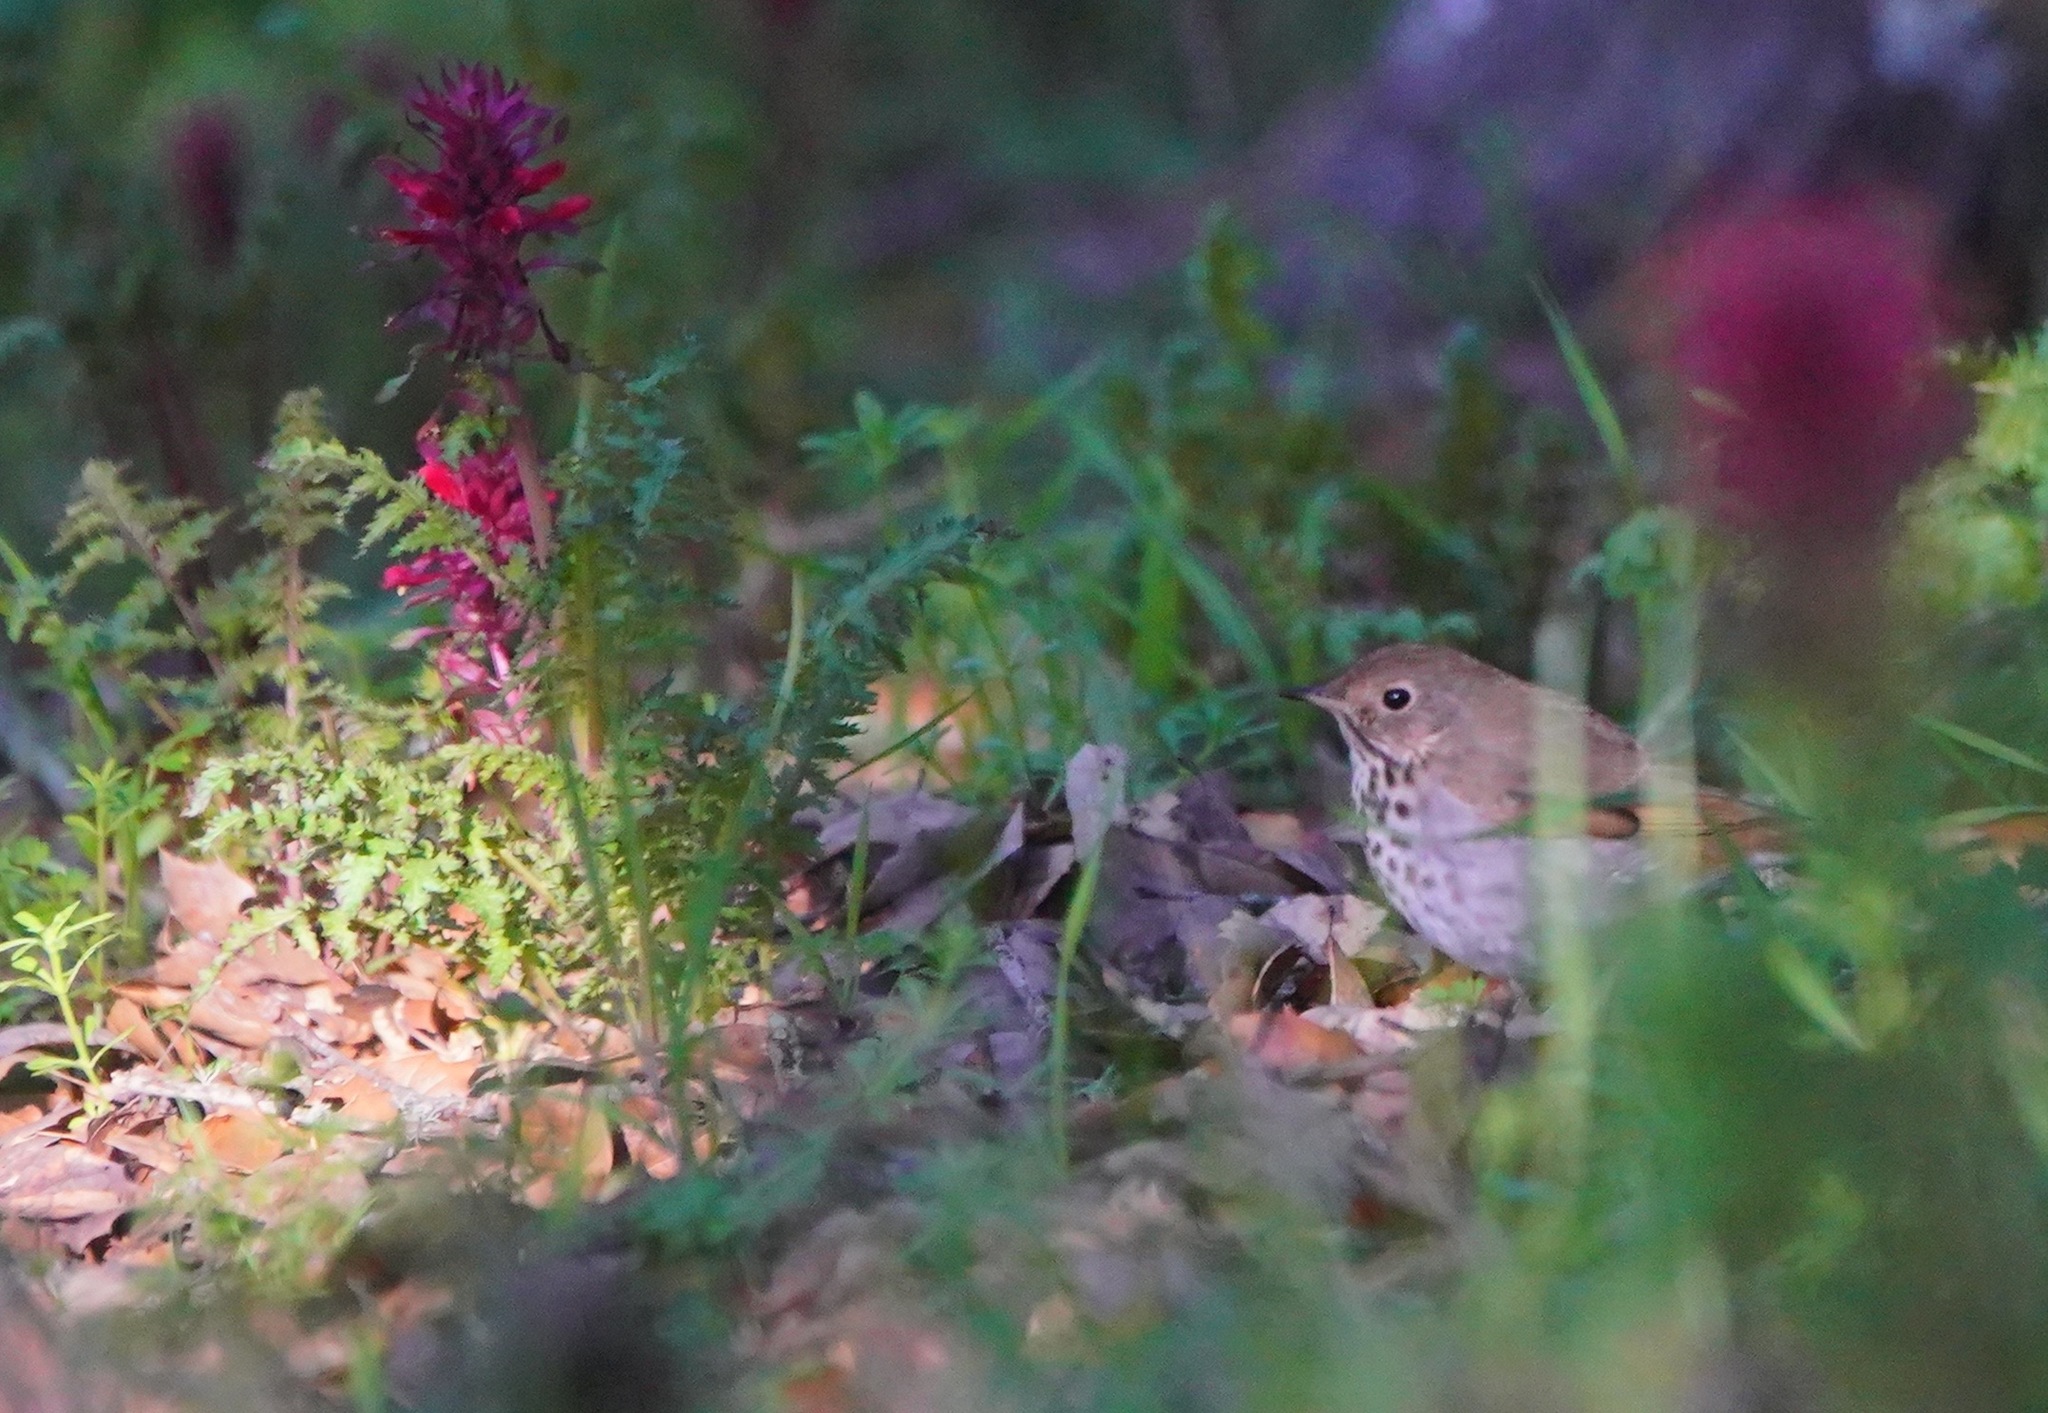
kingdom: Animalia
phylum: Chordata
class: Aves
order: Passeriformes
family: Turdidae
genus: Catharus
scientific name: Catharus guttatus
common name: Hermit thrush
